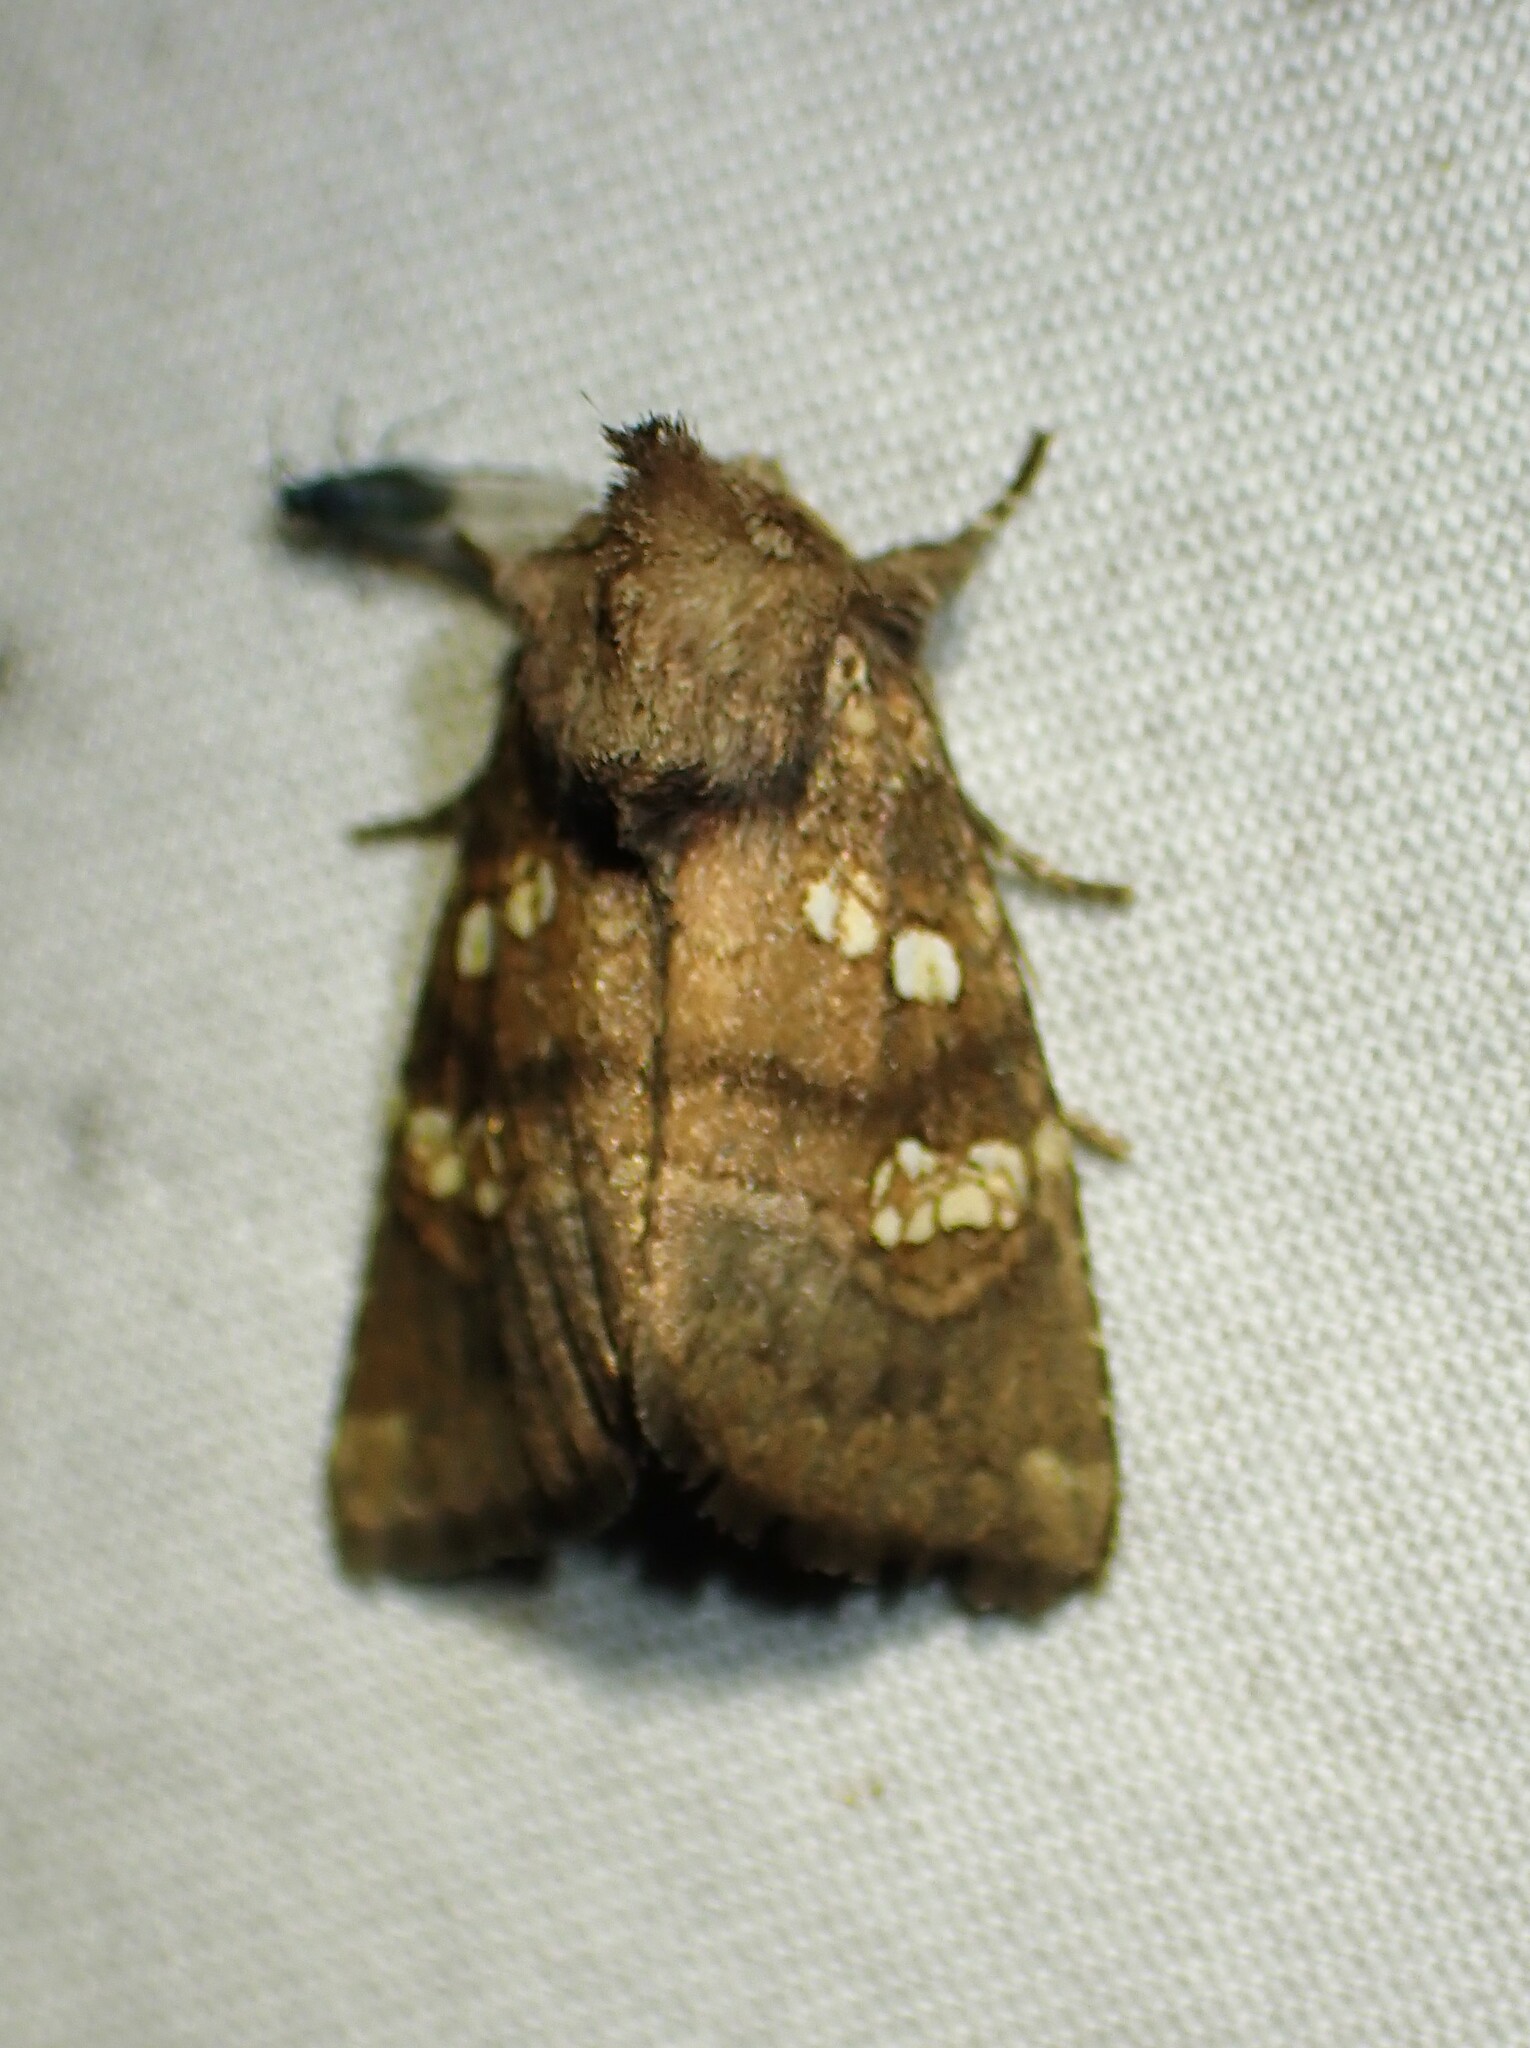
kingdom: Animalia
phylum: Arthropoda
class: Insecta
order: Lepidoptera
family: Noctuidae
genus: Papaipema
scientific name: Papaipema unimoda
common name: Meadow rue borer moth
